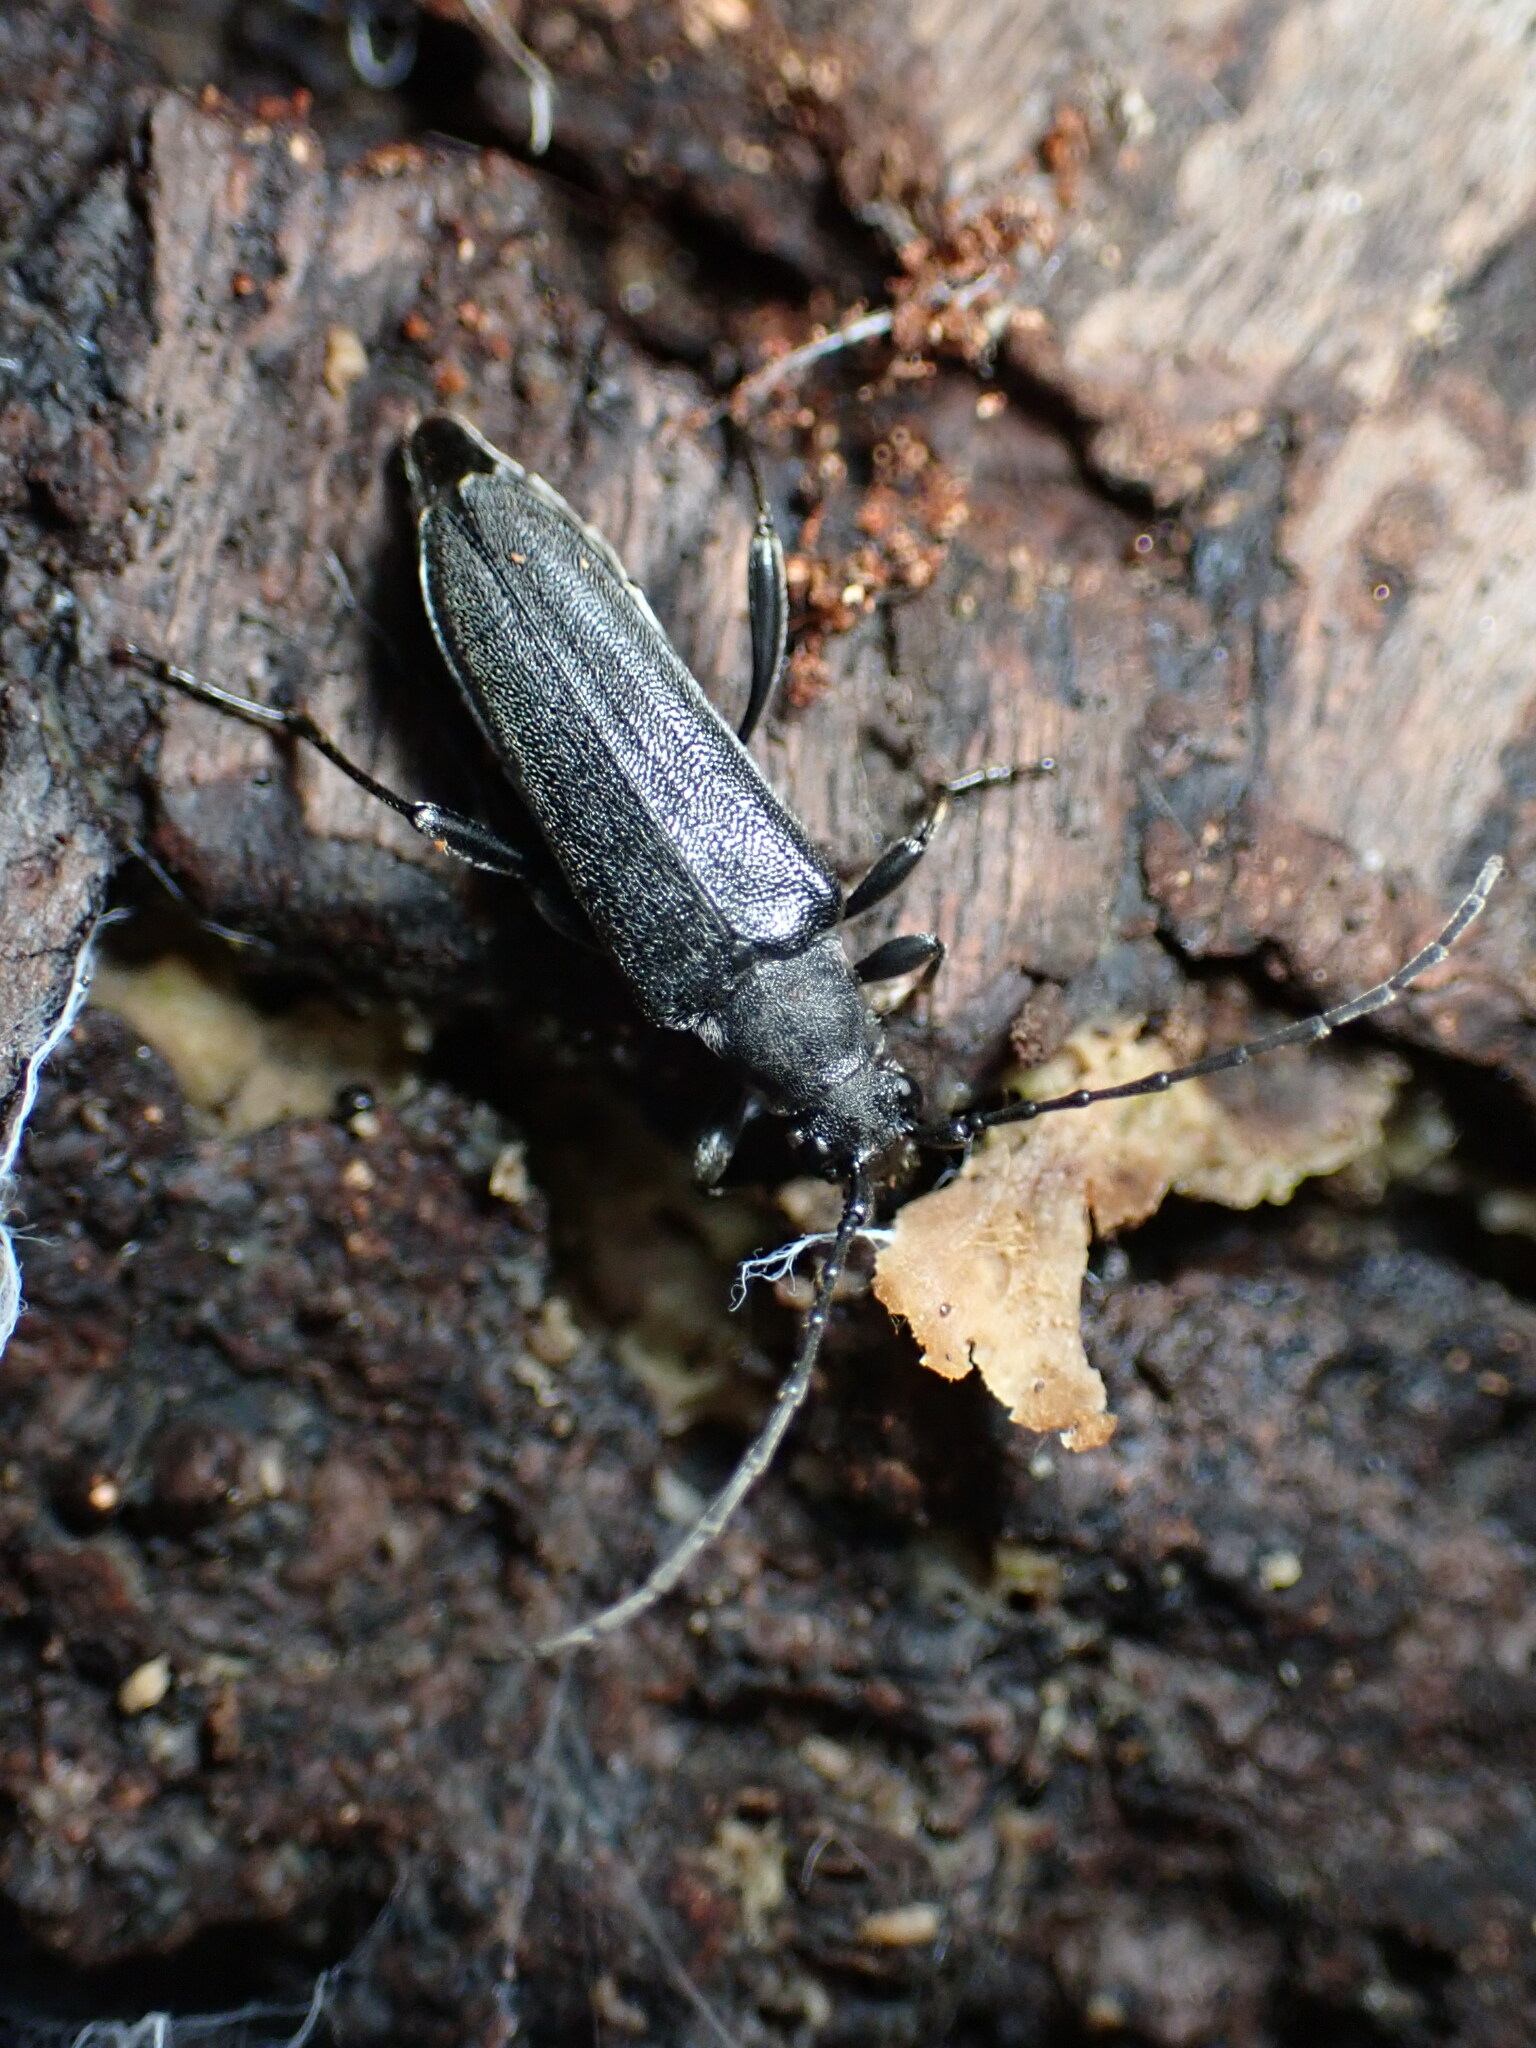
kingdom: Animalia
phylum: Arthropoda
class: Insecta
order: Coleoptera
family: Cerambycidae
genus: Trachysida
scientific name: Trachysida mutabilis
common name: Changeable flower longhorn
